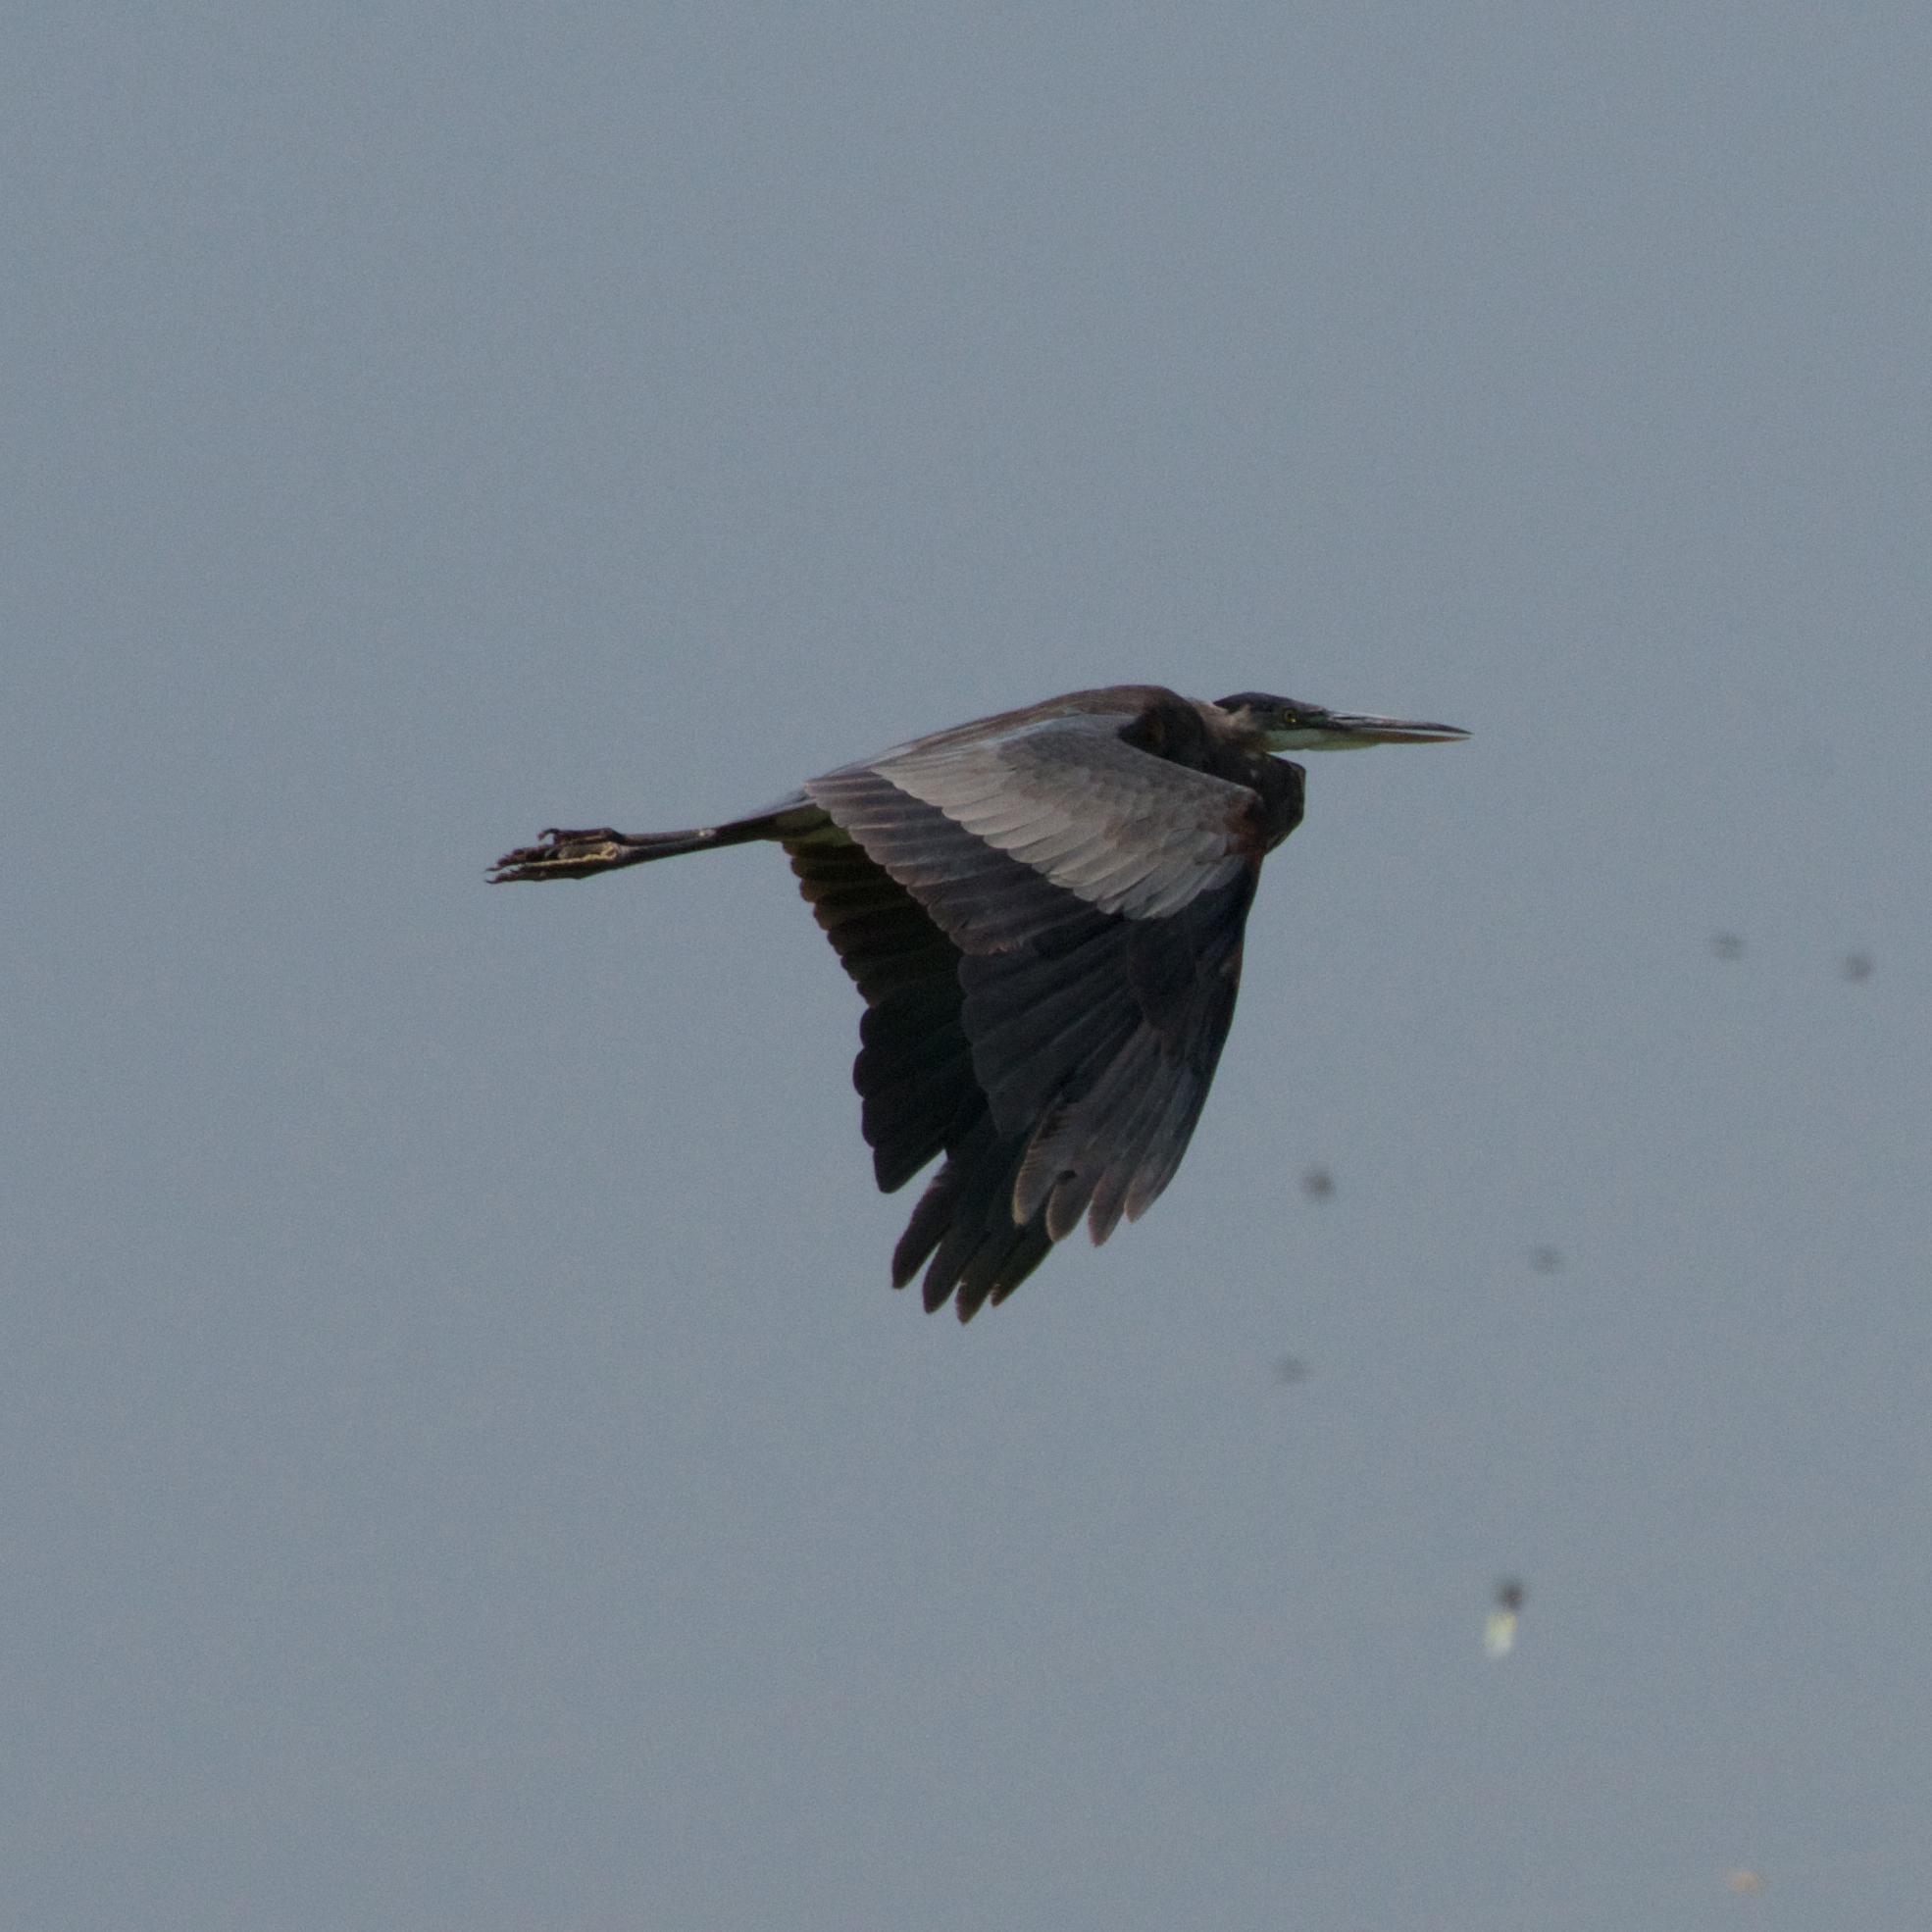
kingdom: Animalia
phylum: Chordata
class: Aves
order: Pelecaniformes
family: Ardeidae
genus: Ardea
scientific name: Ardea herodias
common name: Great blue heron
